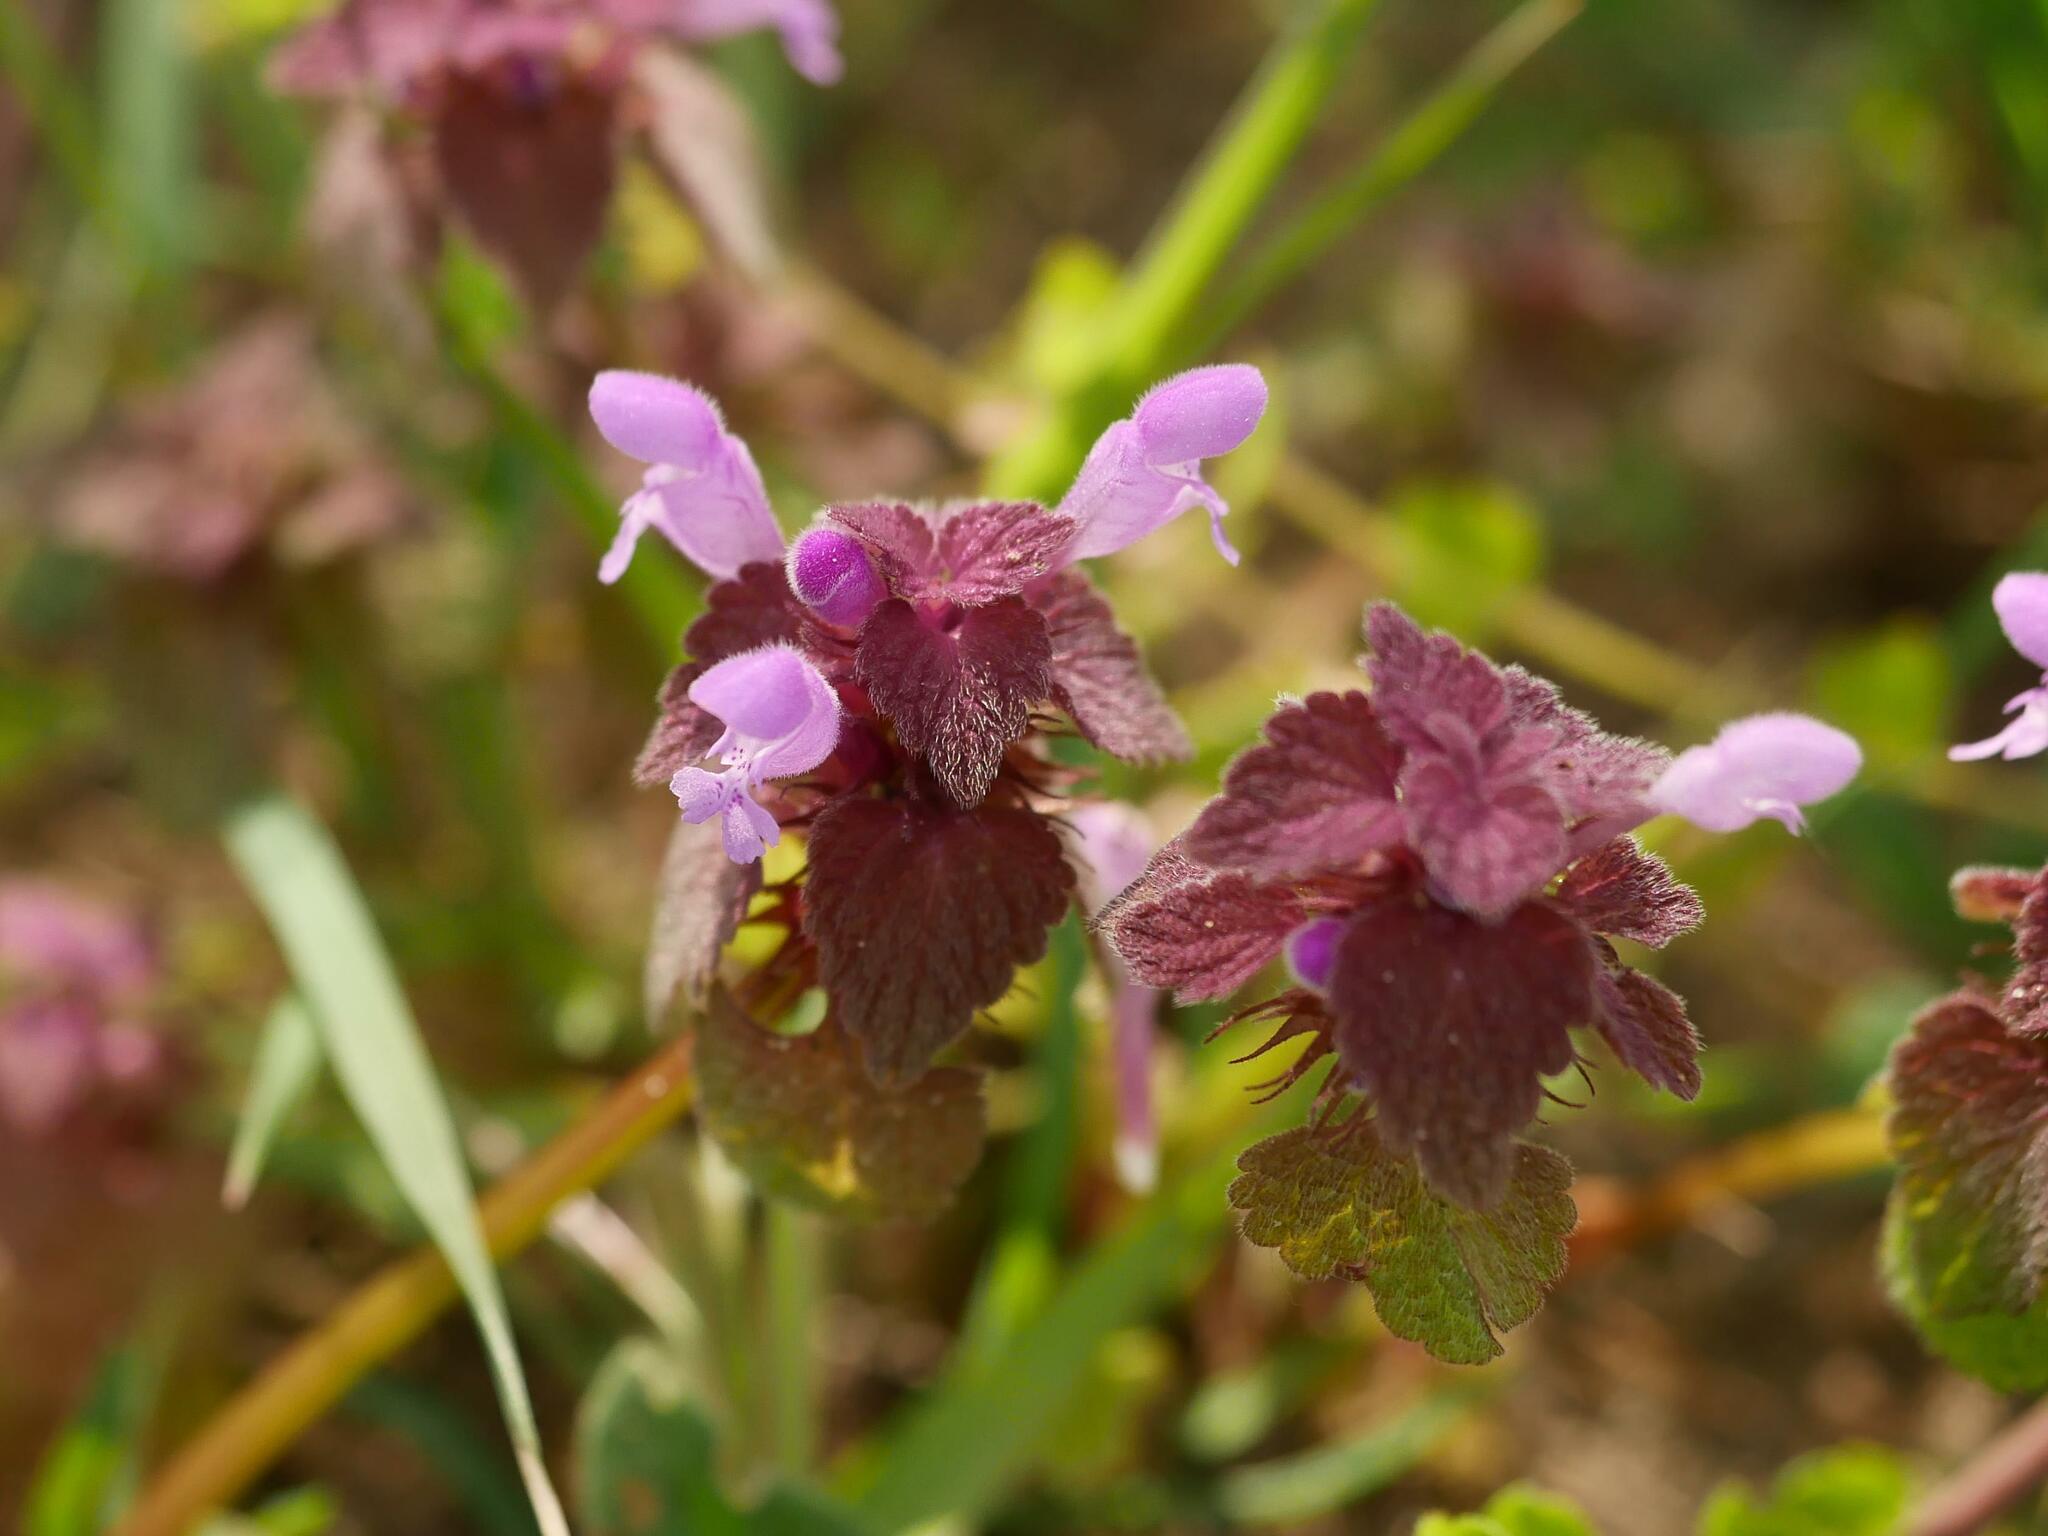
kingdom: Plantae
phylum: Tracheophyta
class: Magnoliopsida
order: Lamiales
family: Lamiaceae
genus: Lamium
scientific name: Lamium purpureum
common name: Red dead-nettle
